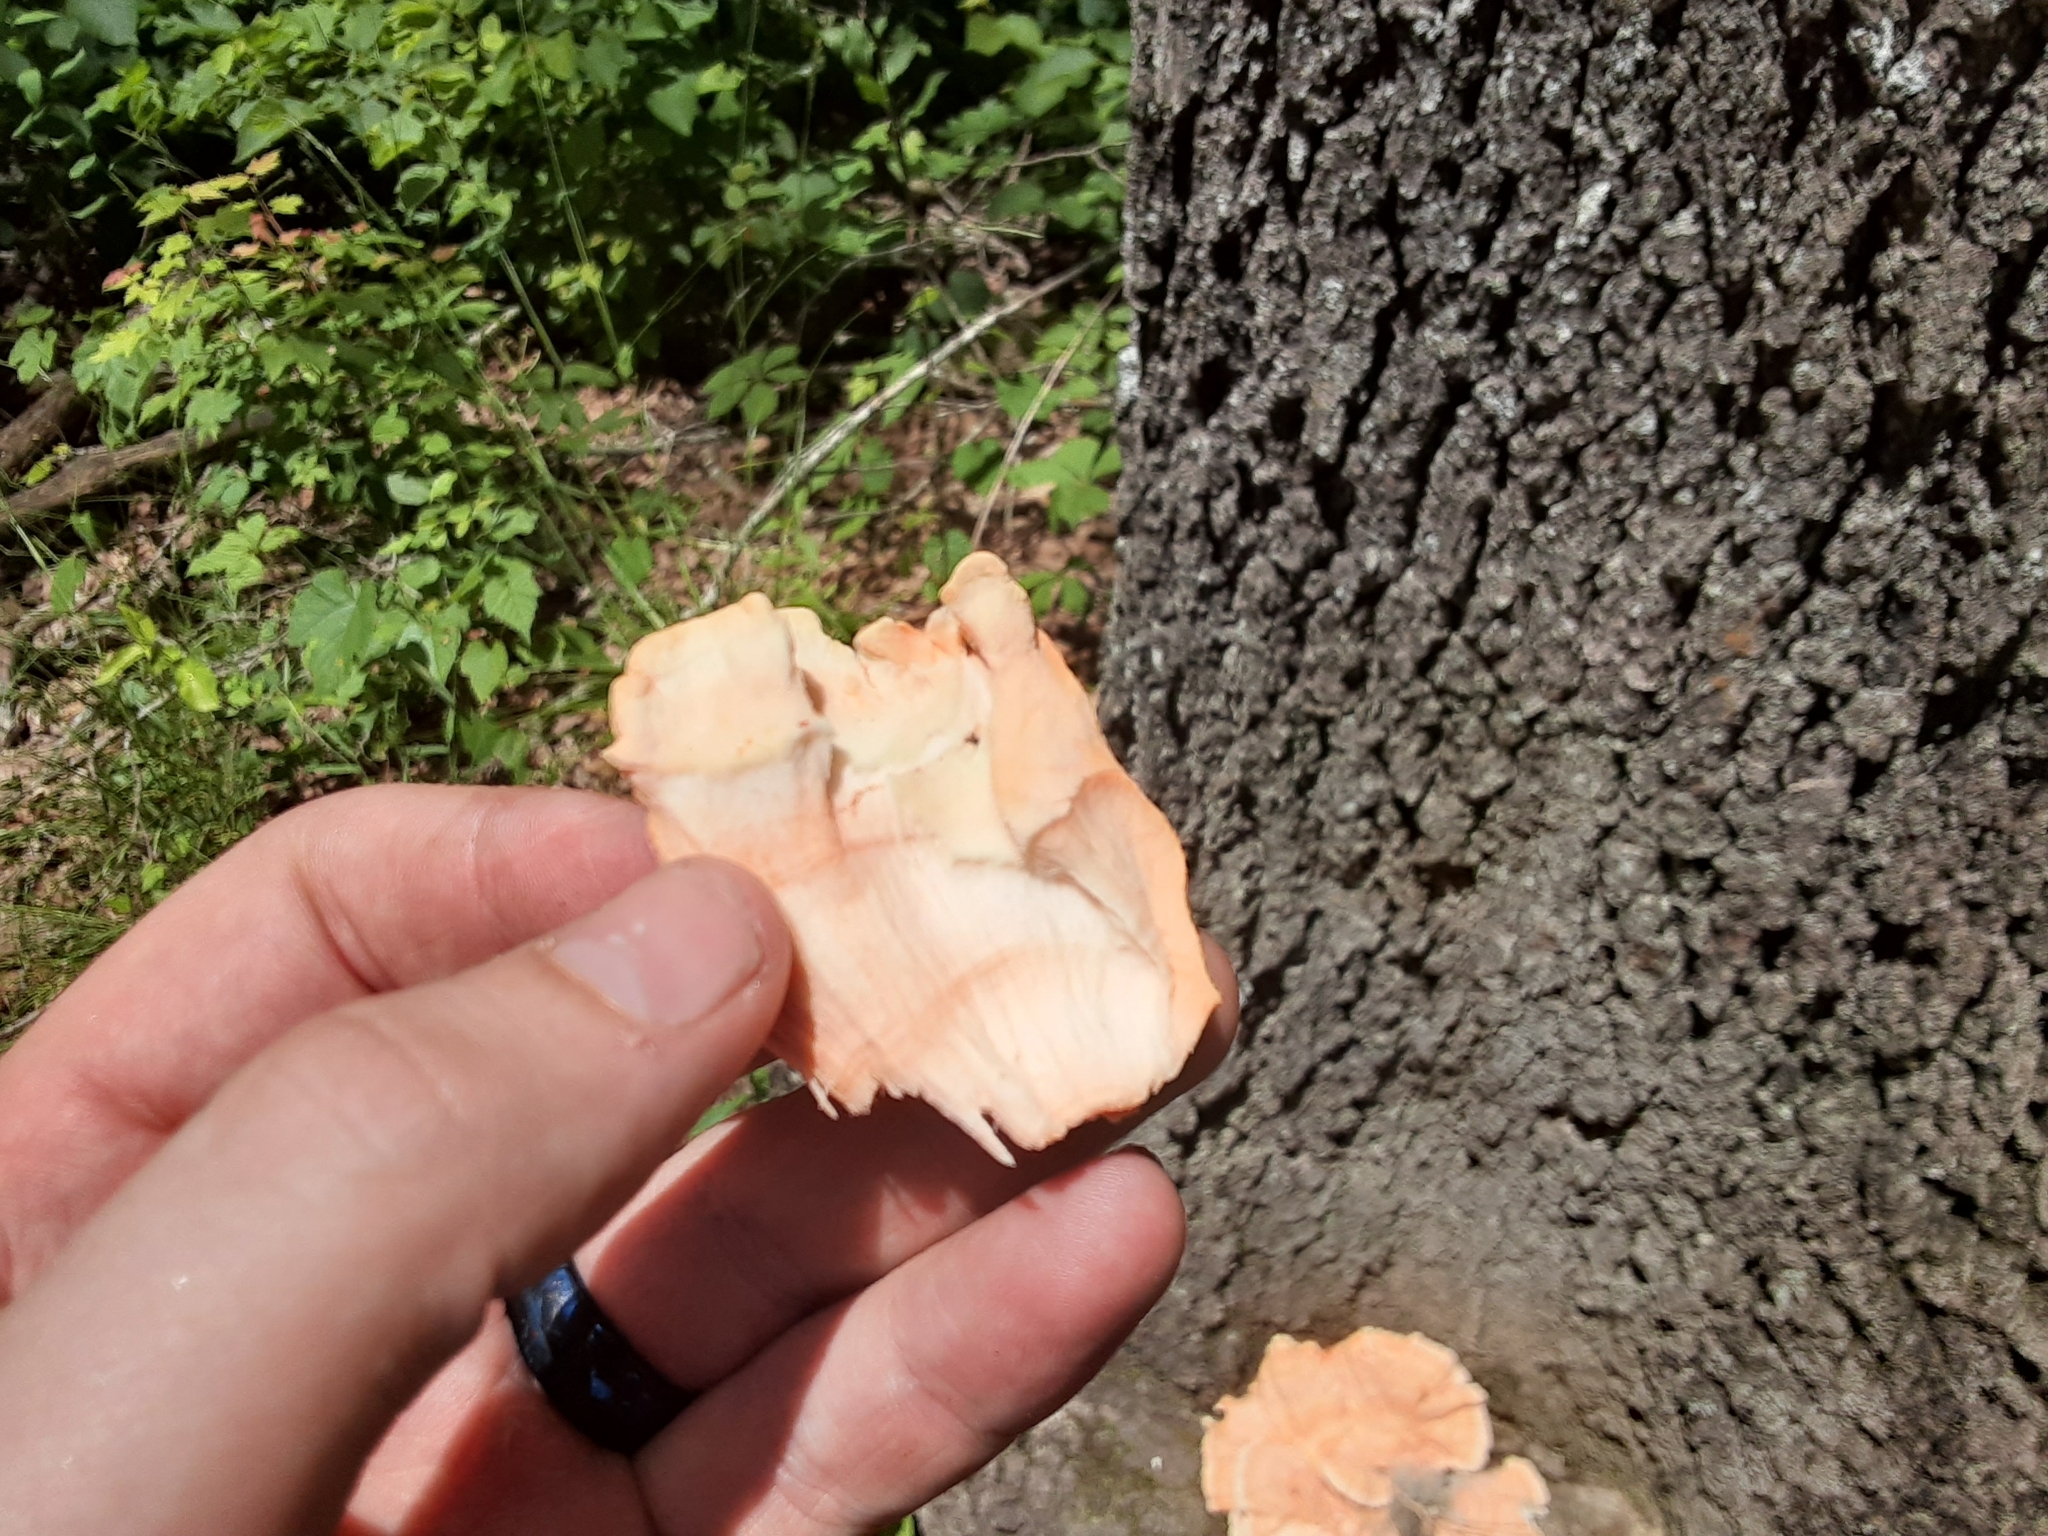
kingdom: Fungi
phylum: Basidiomycota
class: Agaricomycetes
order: Polyporales
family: Laetiporaceae
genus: Laetiporus
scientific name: Laetiporus sulphureus
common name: Chicken of the woods
